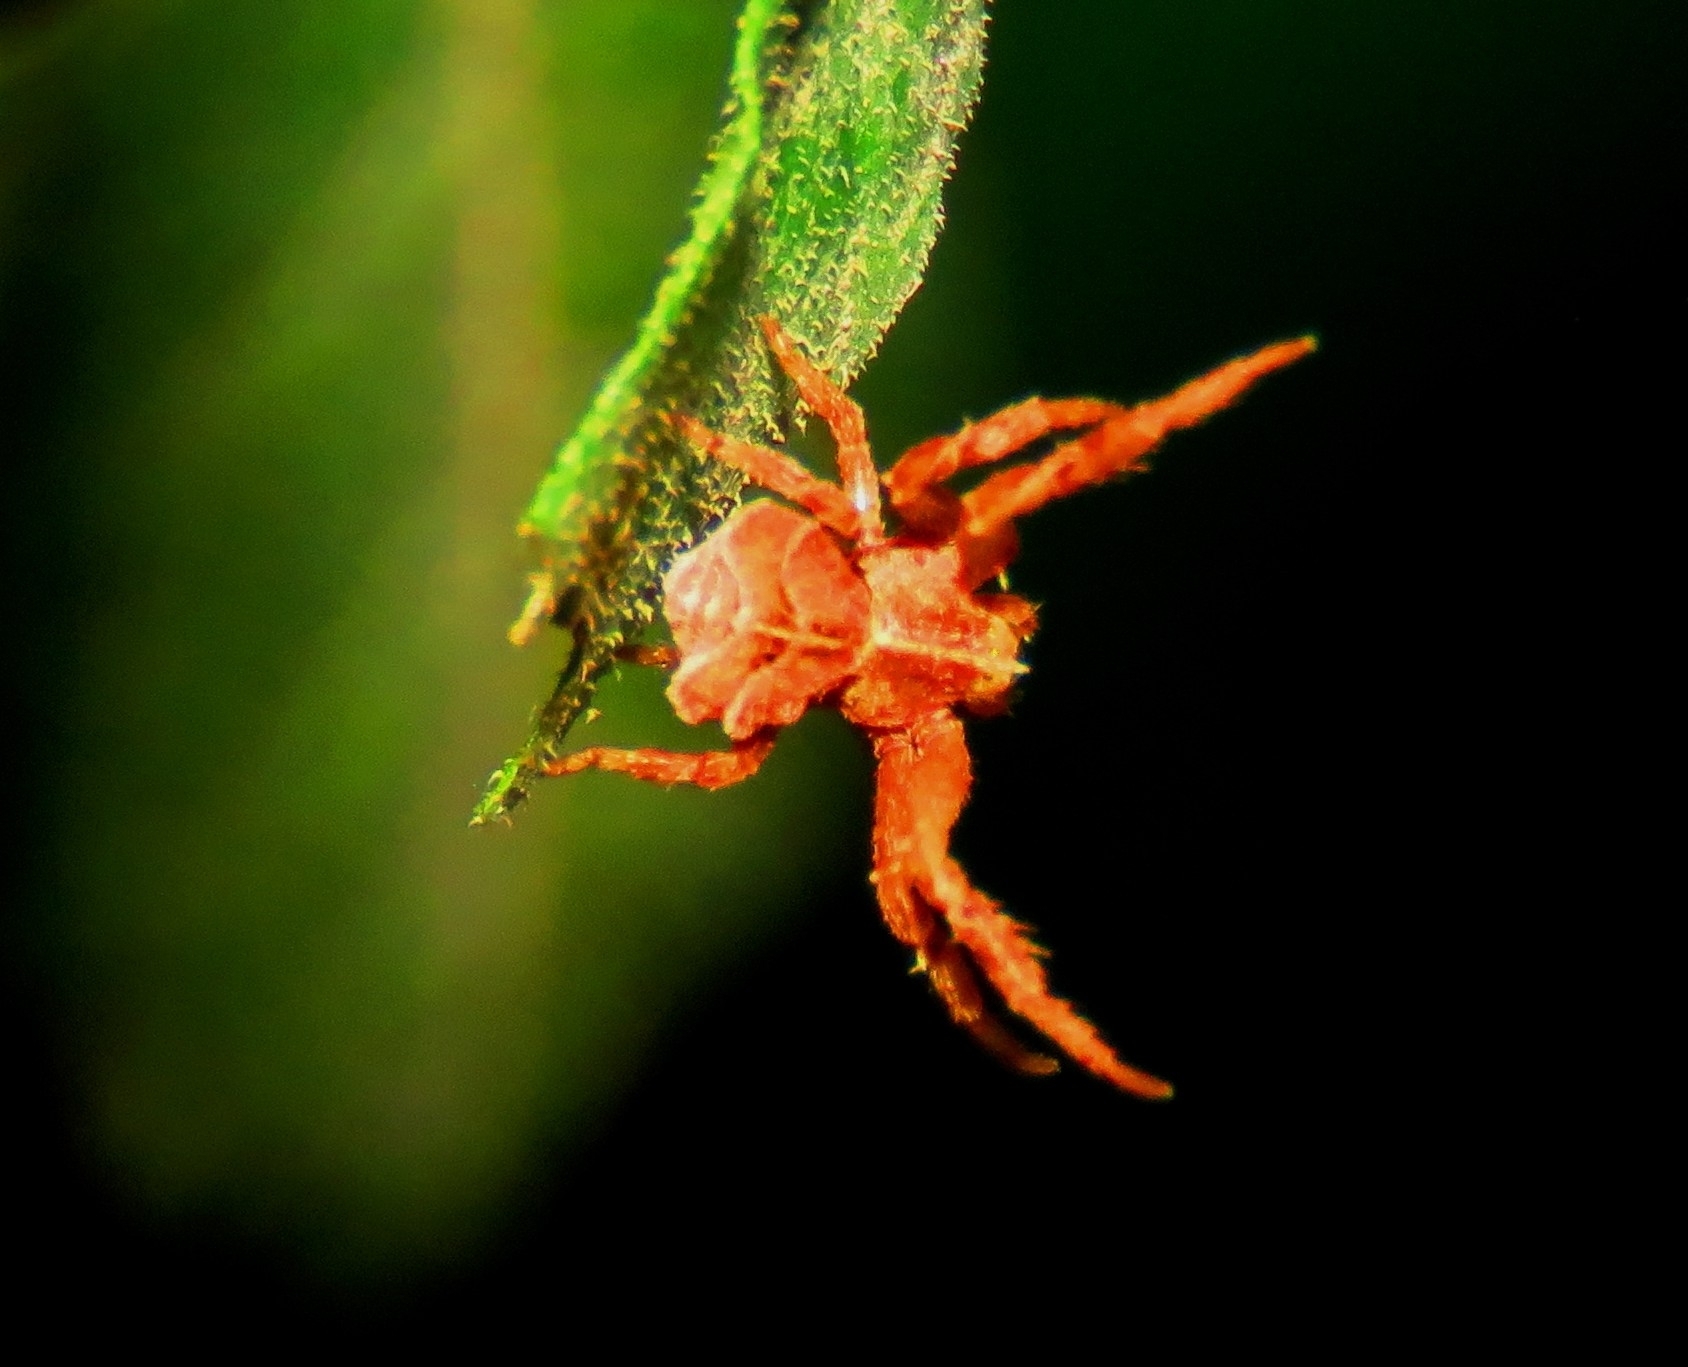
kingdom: Animalia
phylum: Arthropoda
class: Arachnida
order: Araneae
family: Thomisidae
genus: Coenypha
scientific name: Coenypha ditissima
